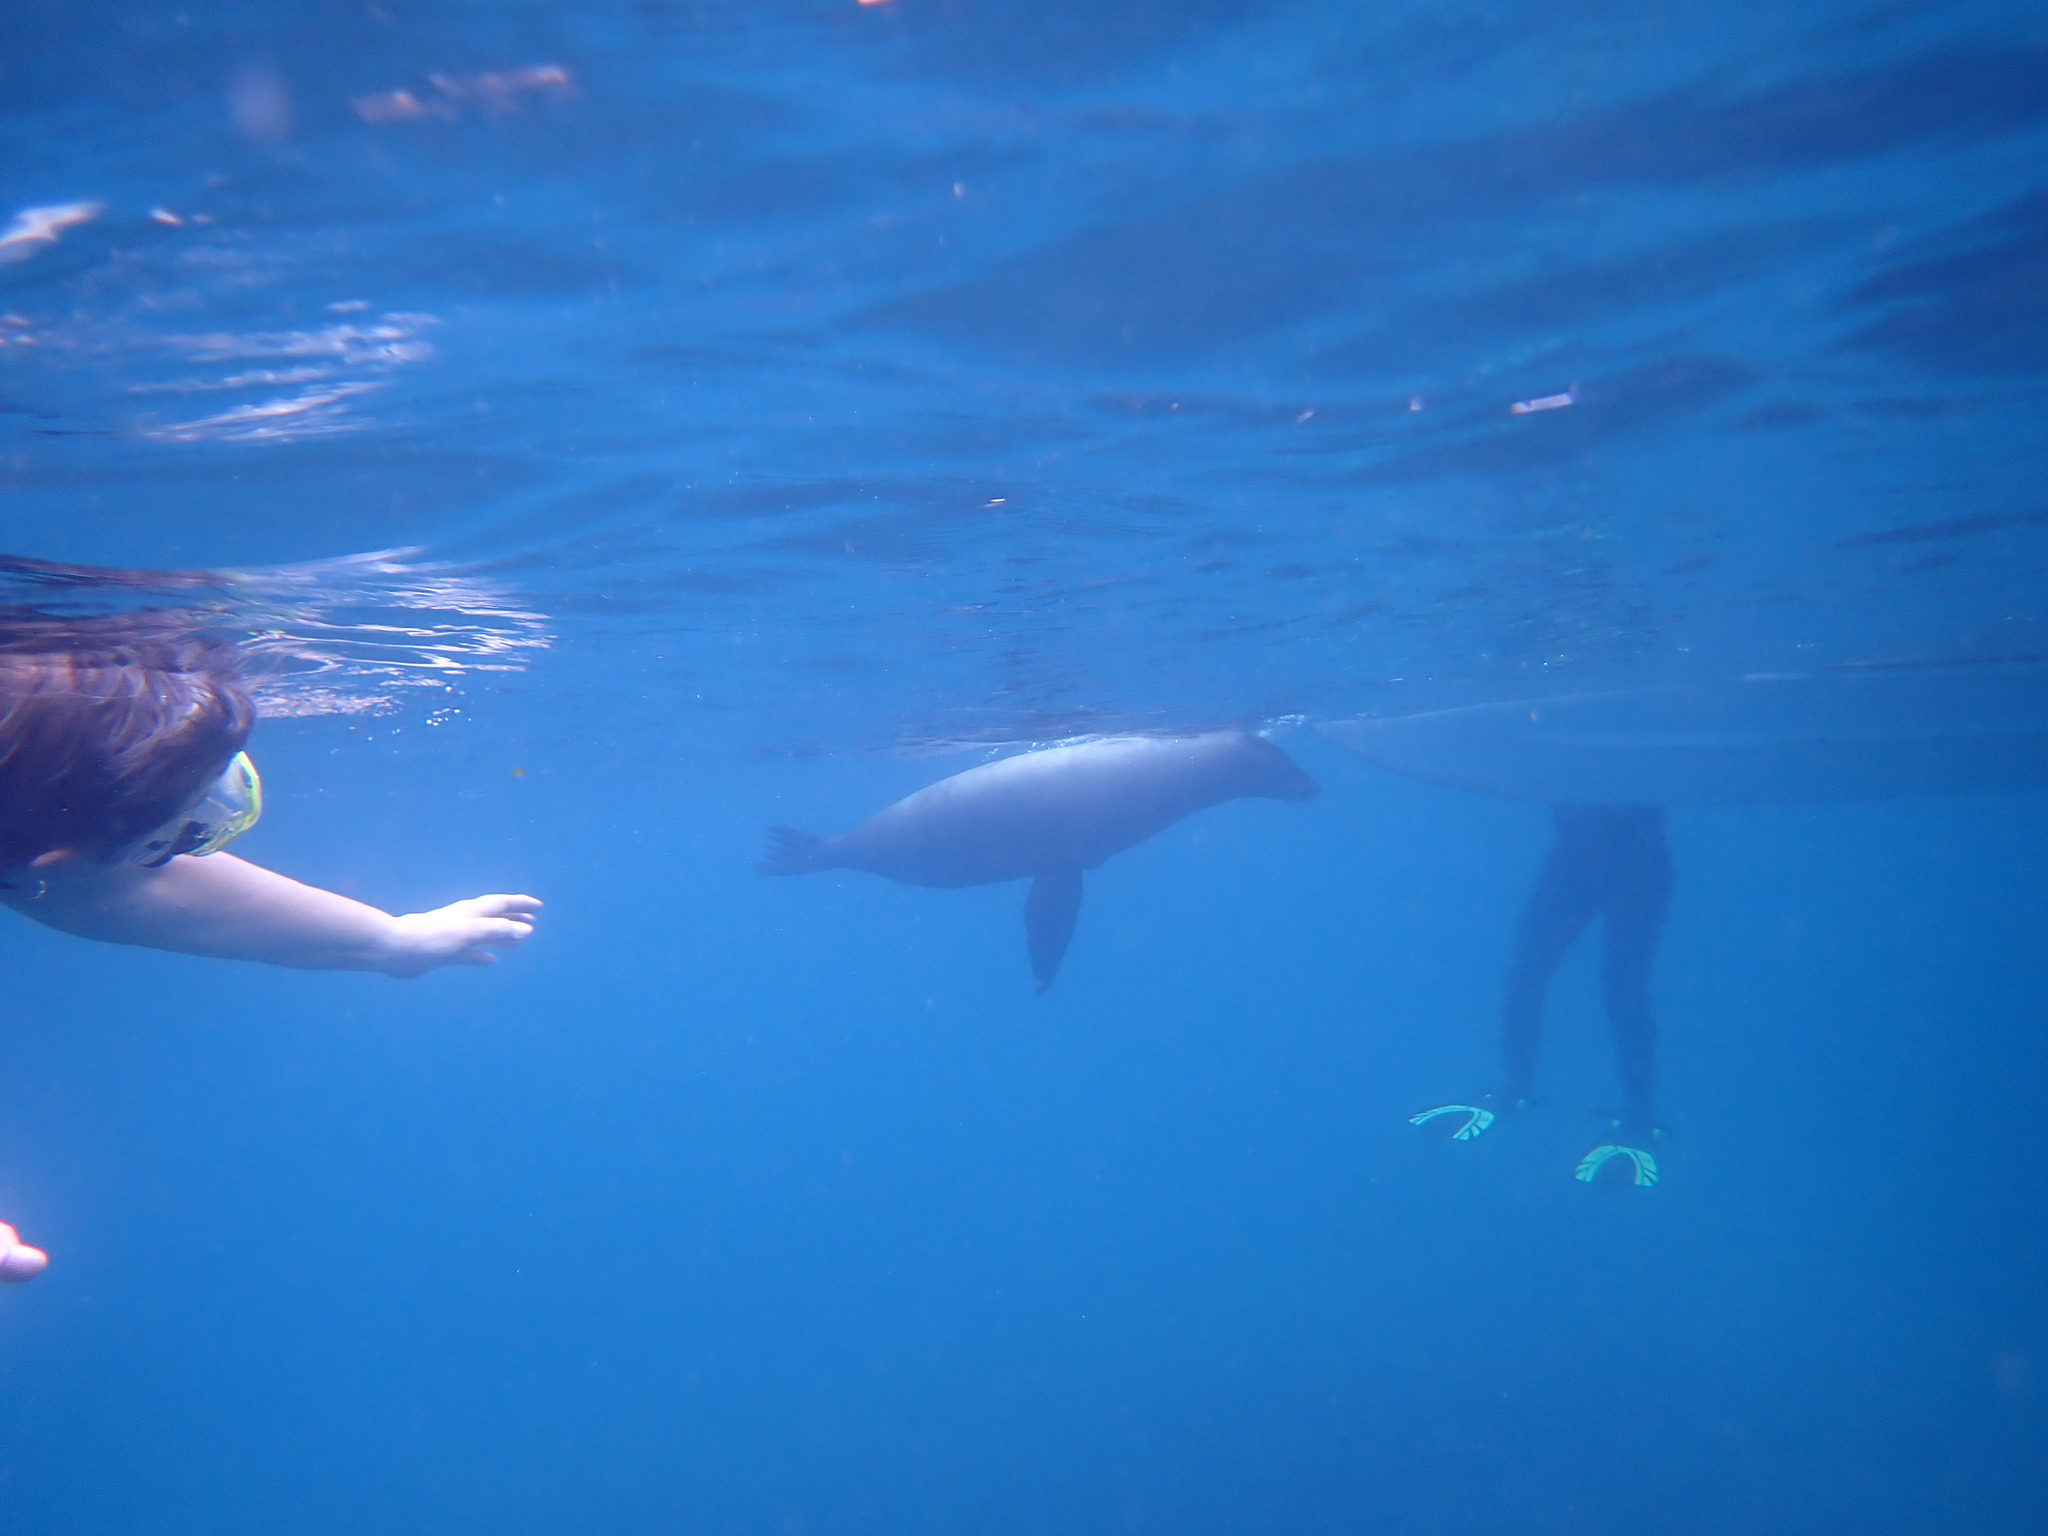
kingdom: Animalia
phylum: Chordata
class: Mammalia
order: Carnivora
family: Otariidae
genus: Zalophus
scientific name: Zalophus wollebaeki
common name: Galapagos sea lion
